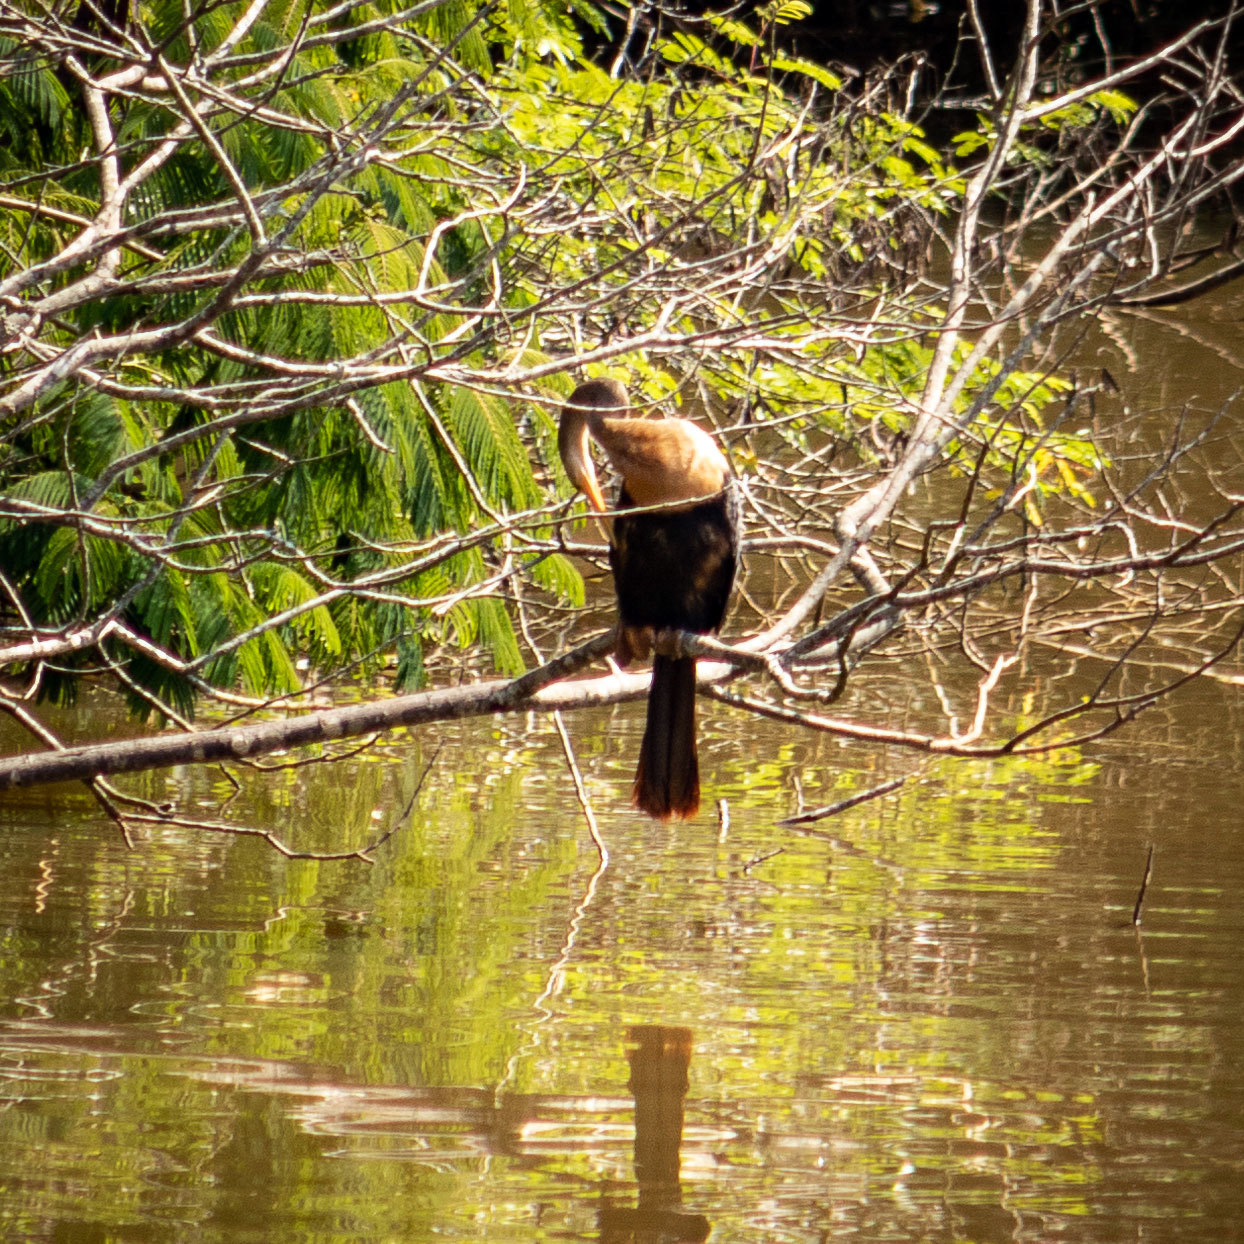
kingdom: Animalia
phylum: Chordata
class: Aves
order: Suliformes
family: Anhingidae
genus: Anhinga
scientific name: Anhinga anhinga
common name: Anhinga
